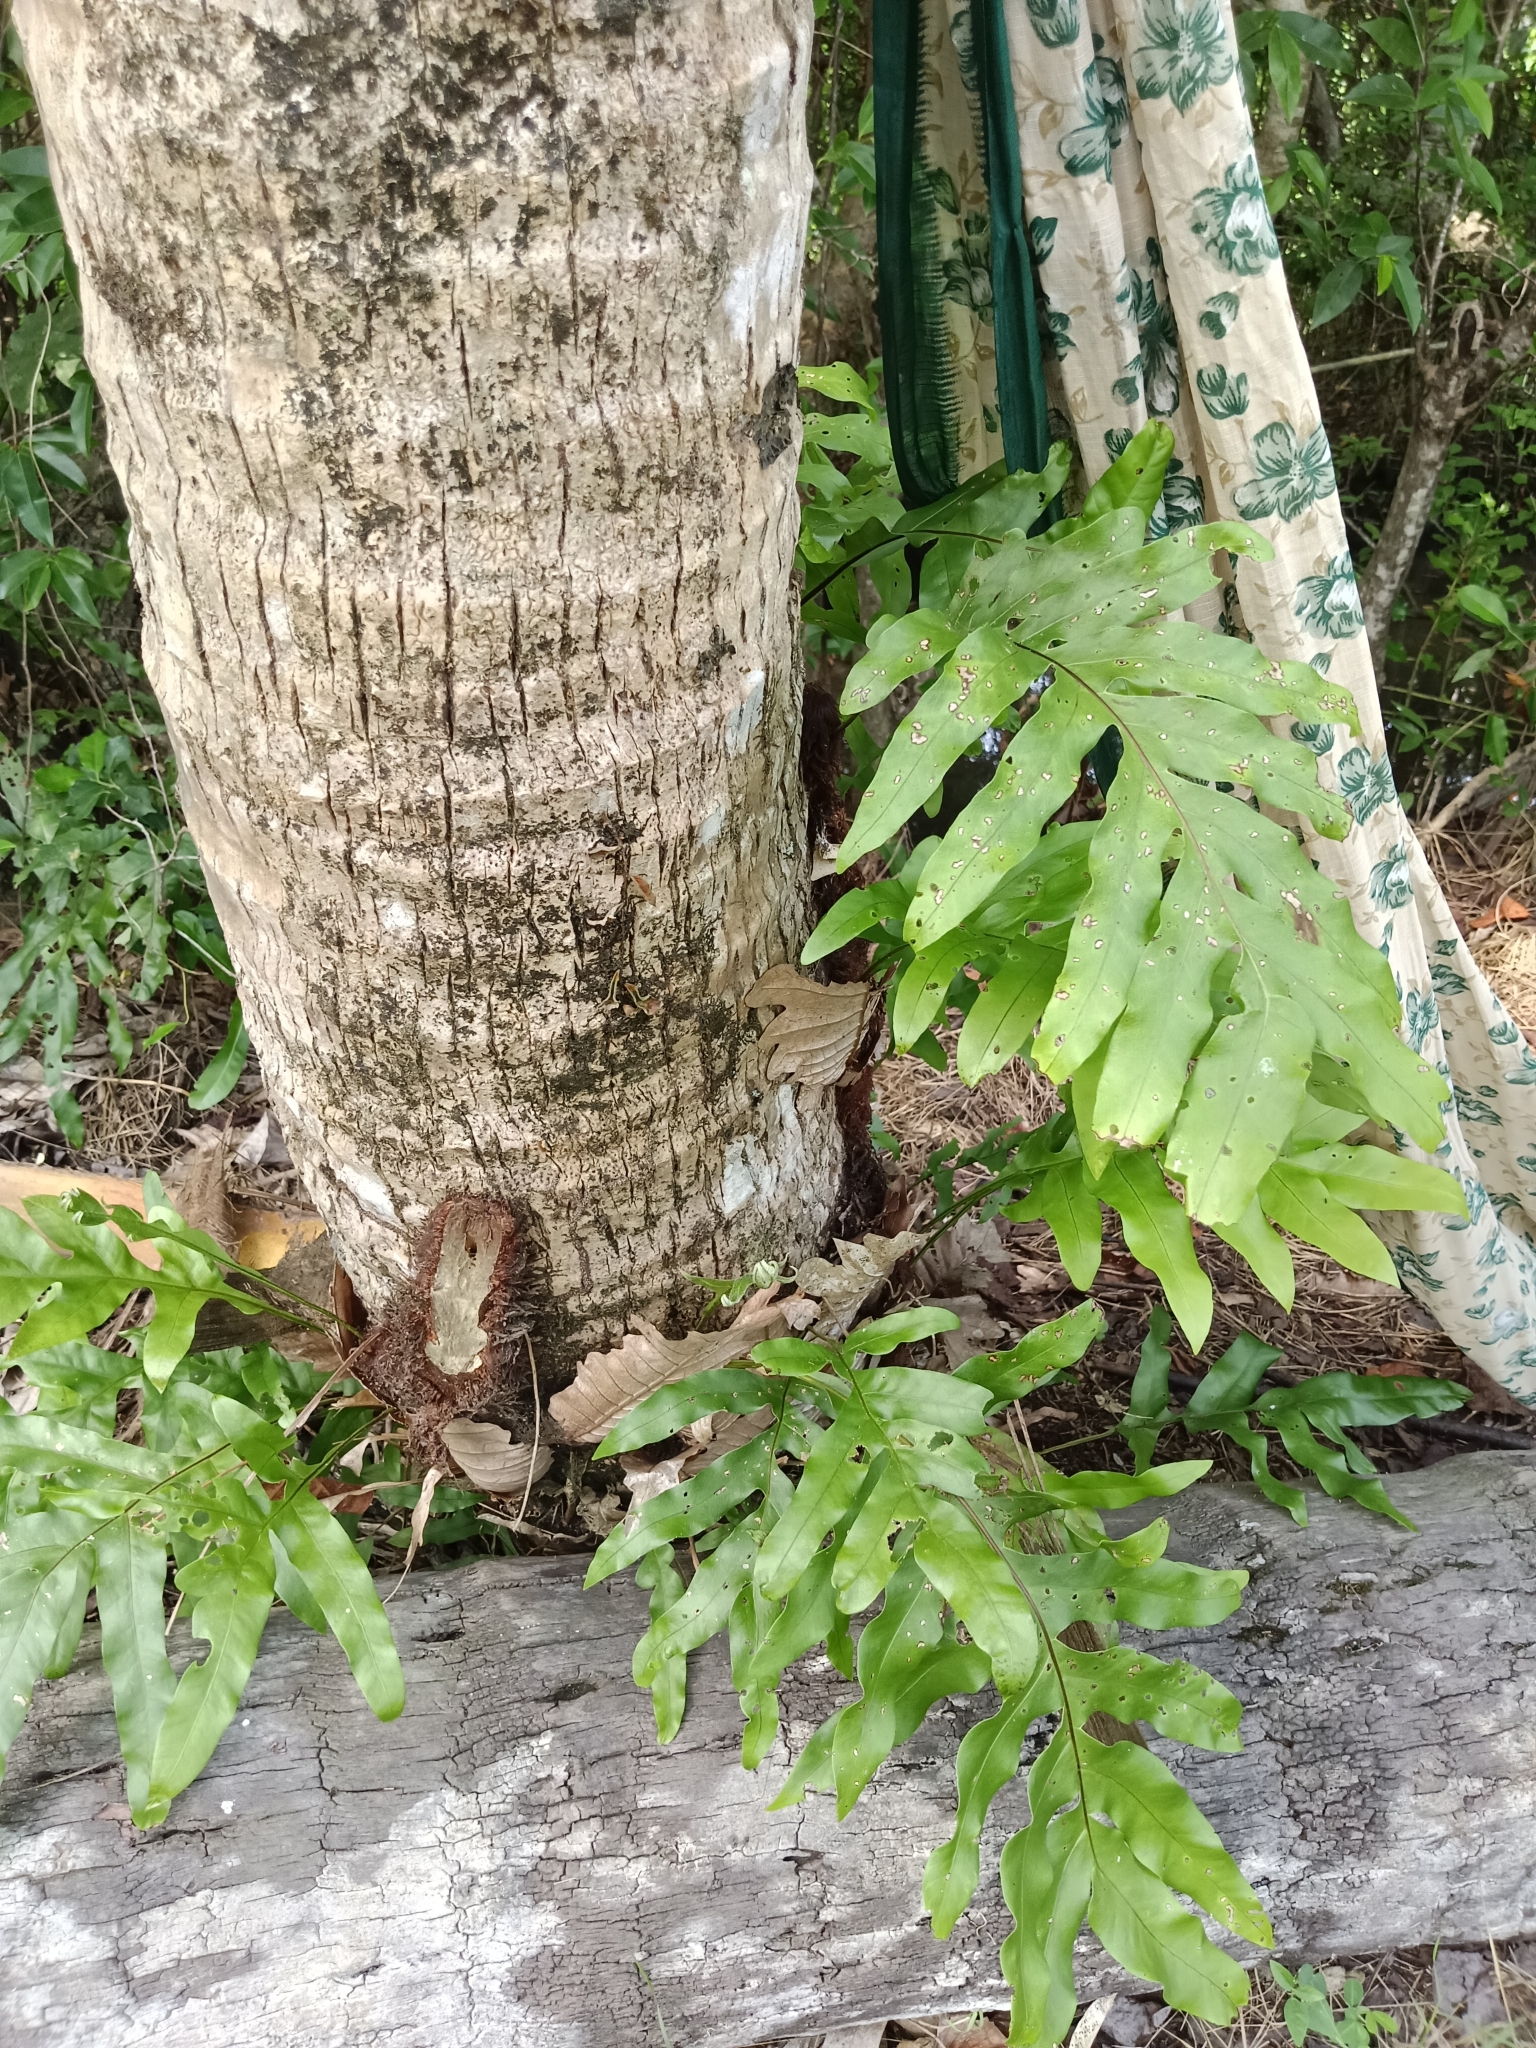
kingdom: Plantae
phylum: Tracheophyta
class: Polypodiopsida
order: Polypodiales
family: Polypodiaceae
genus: Drynaria
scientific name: Drynaria quercifolia
